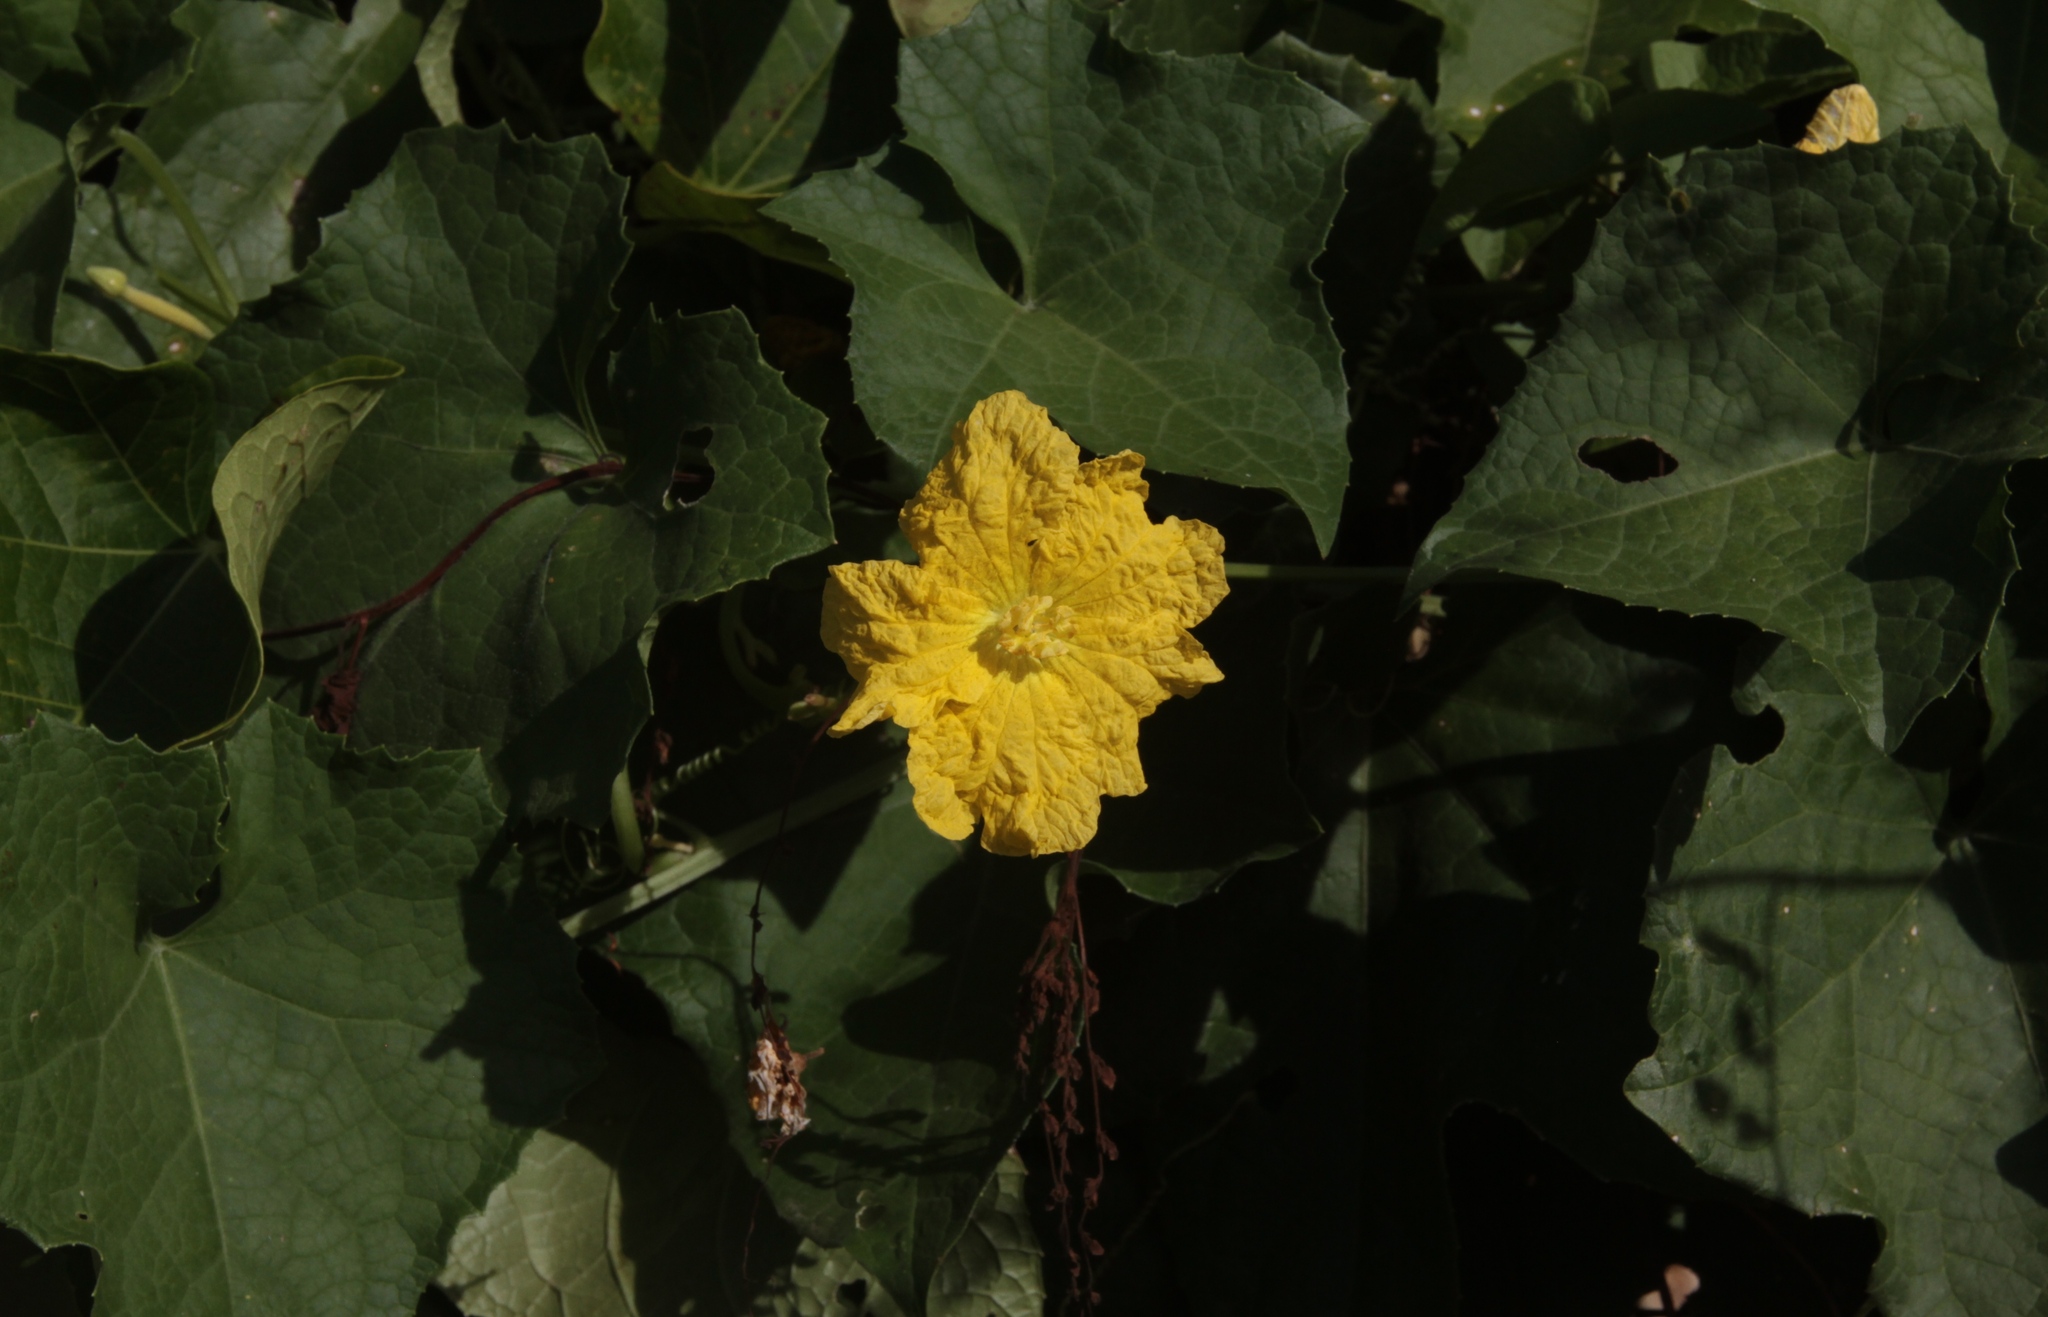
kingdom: Plantae
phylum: Tracheophyta
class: Magnoliopsida
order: Cucurbitales
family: Cucurbitaceae
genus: Luffa
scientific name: Luffa aegyptiaca
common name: Sponge gourd
